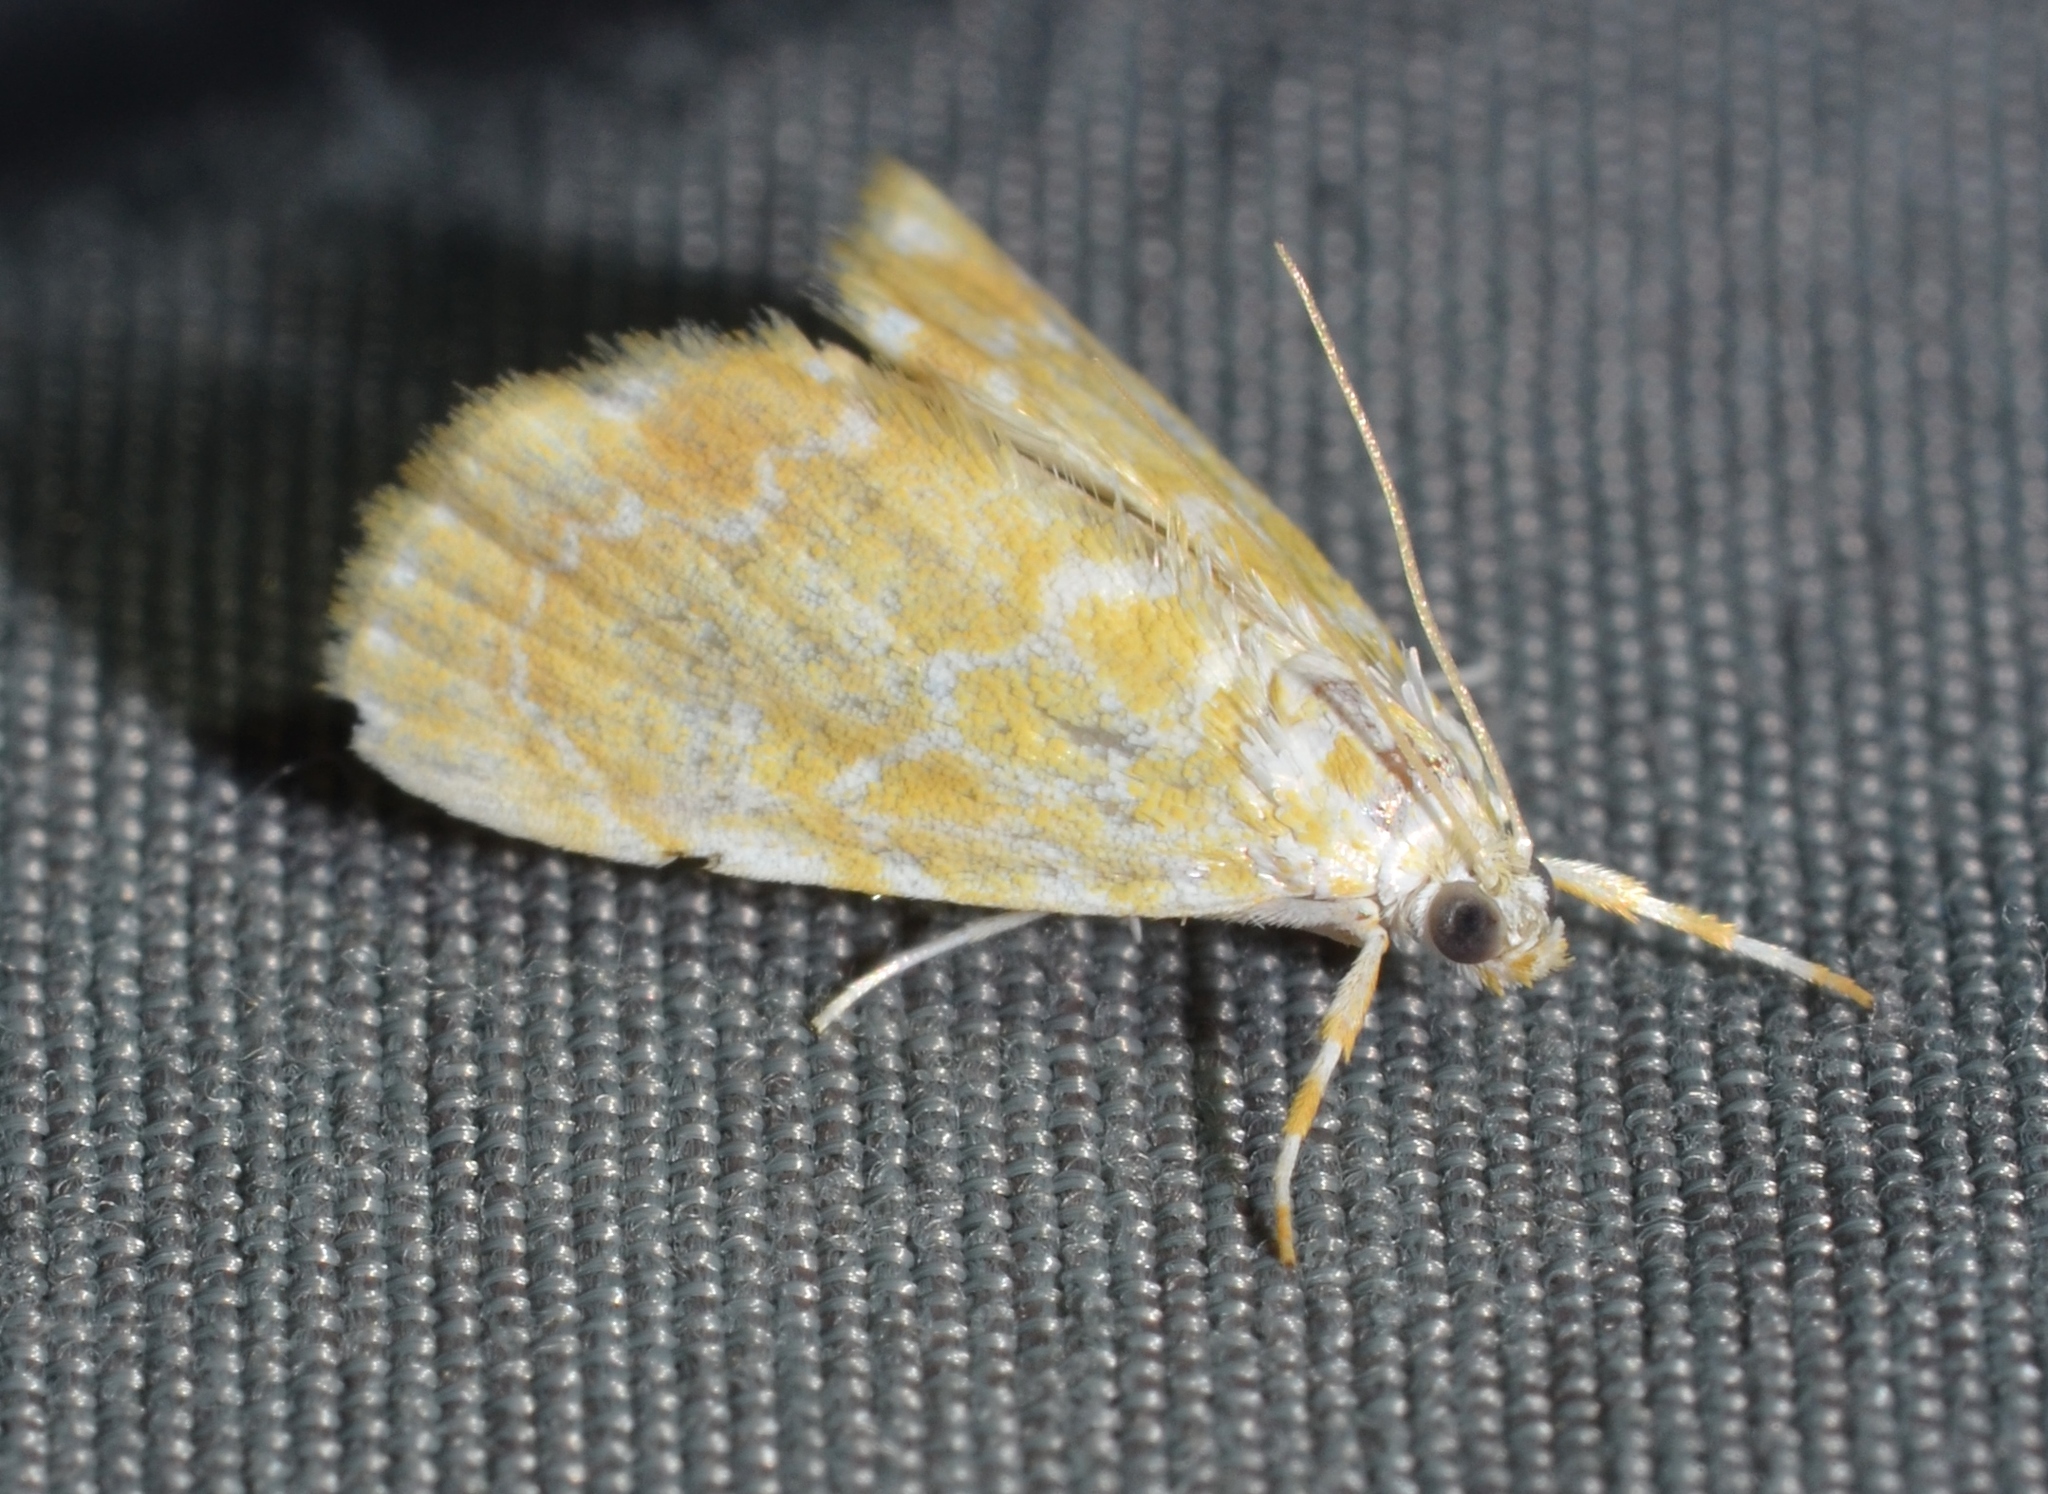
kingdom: Animalia
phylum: Arthropoda
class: Insecta
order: Lepidoptera
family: Crambidae
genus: Glaphyria
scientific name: Glaphyria glaphyralis
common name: Common glaphyria moth
